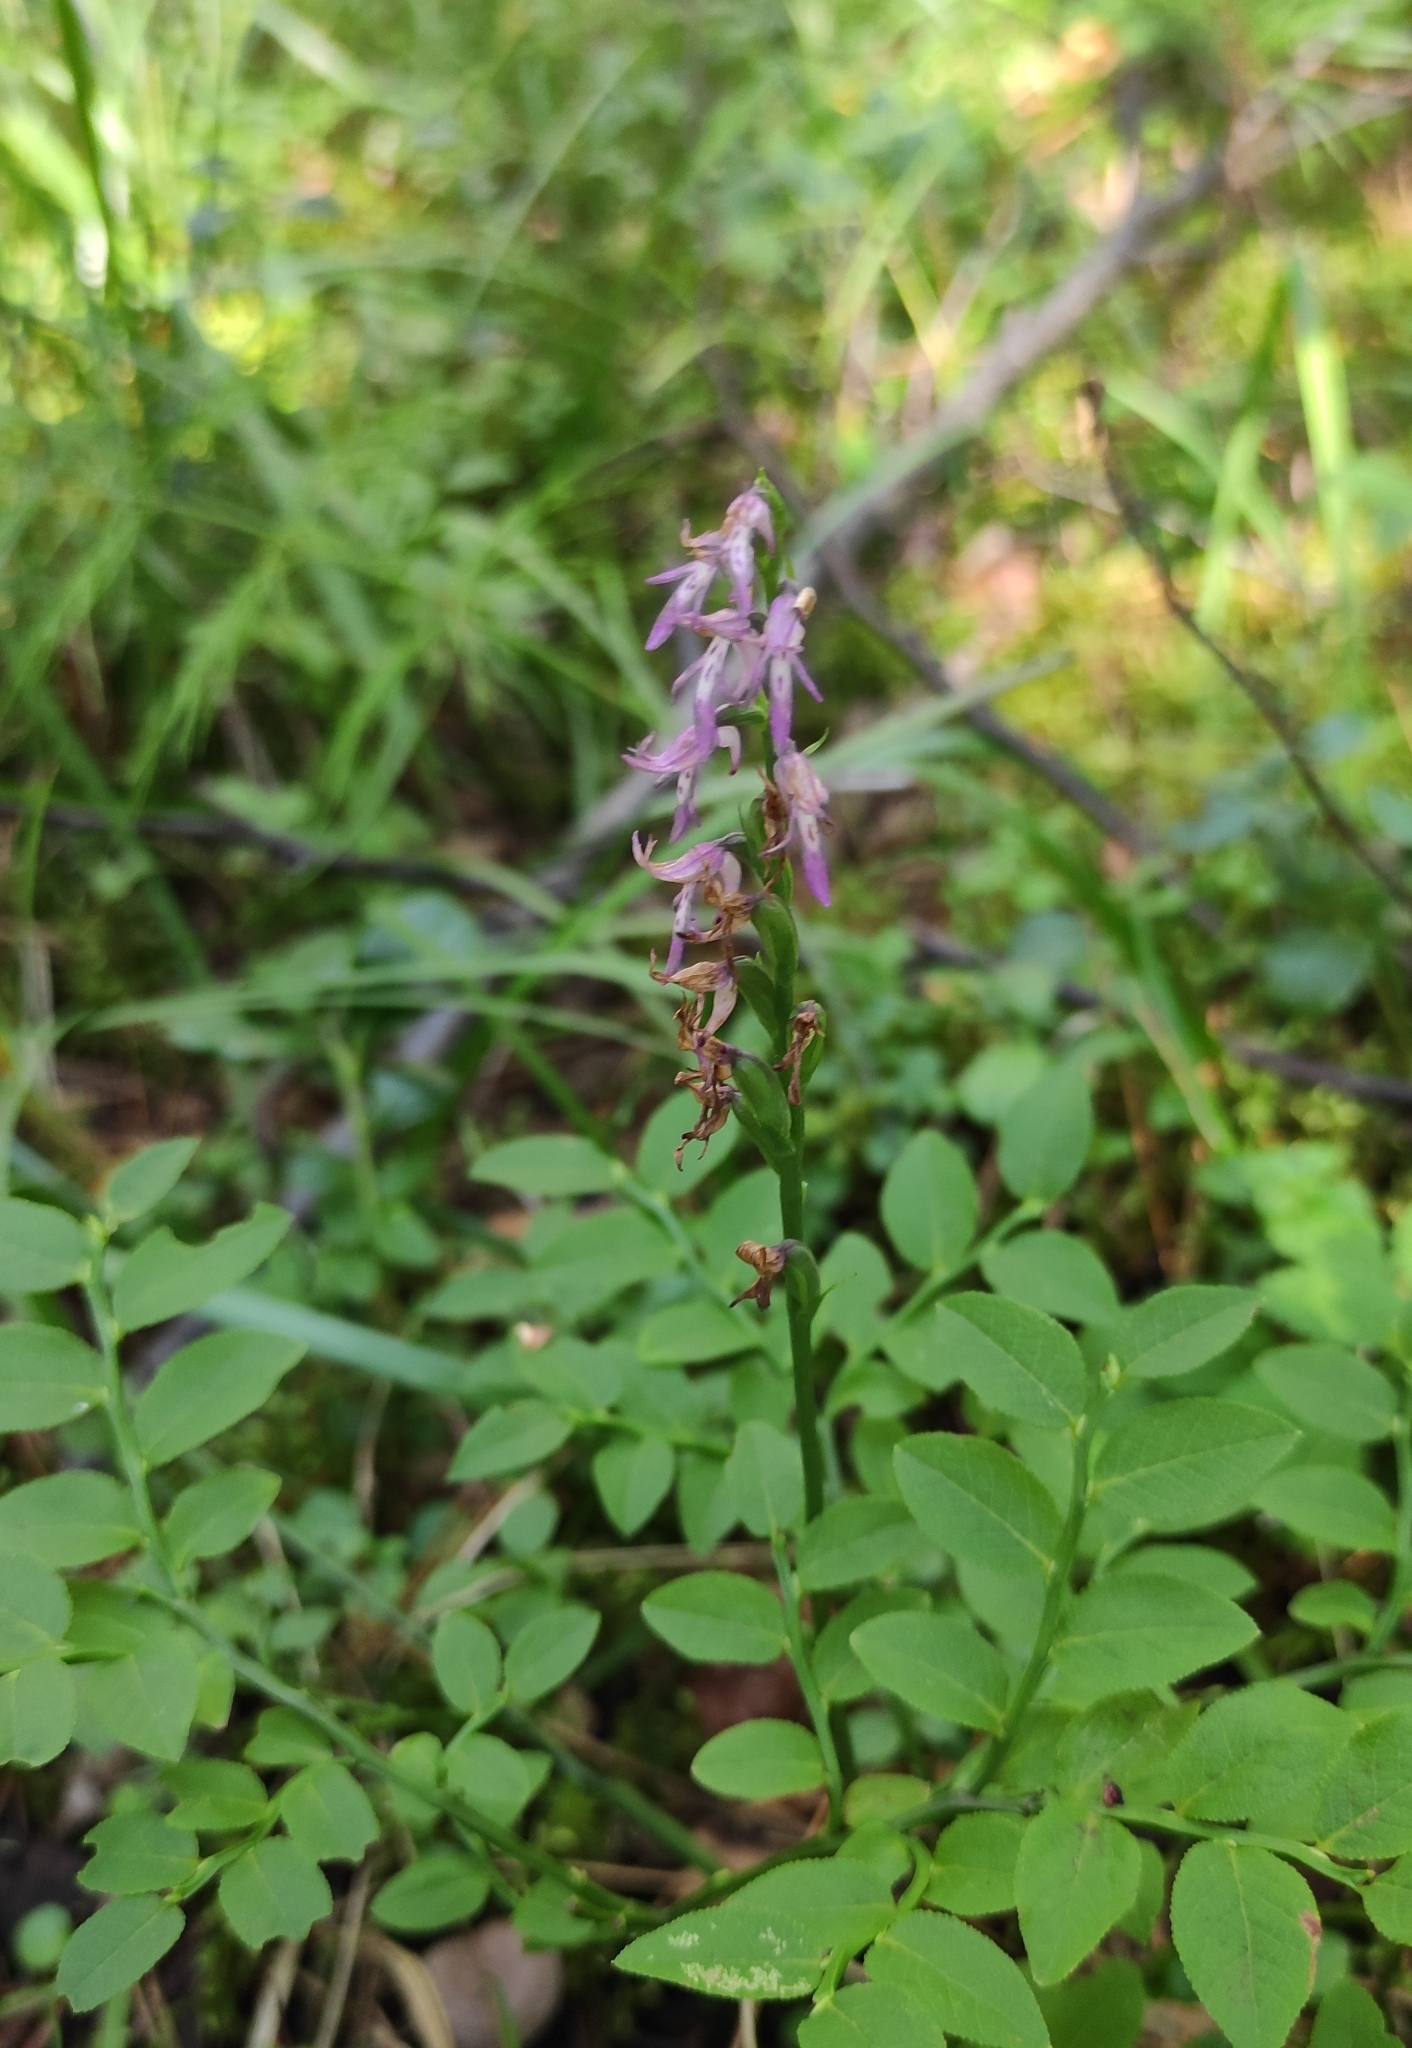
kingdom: Plantae
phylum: Tracheophyta
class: Liliopsida
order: Asparagales
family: Orchidaceae
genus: Hemipilia
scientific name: Hemipilia cucullata
